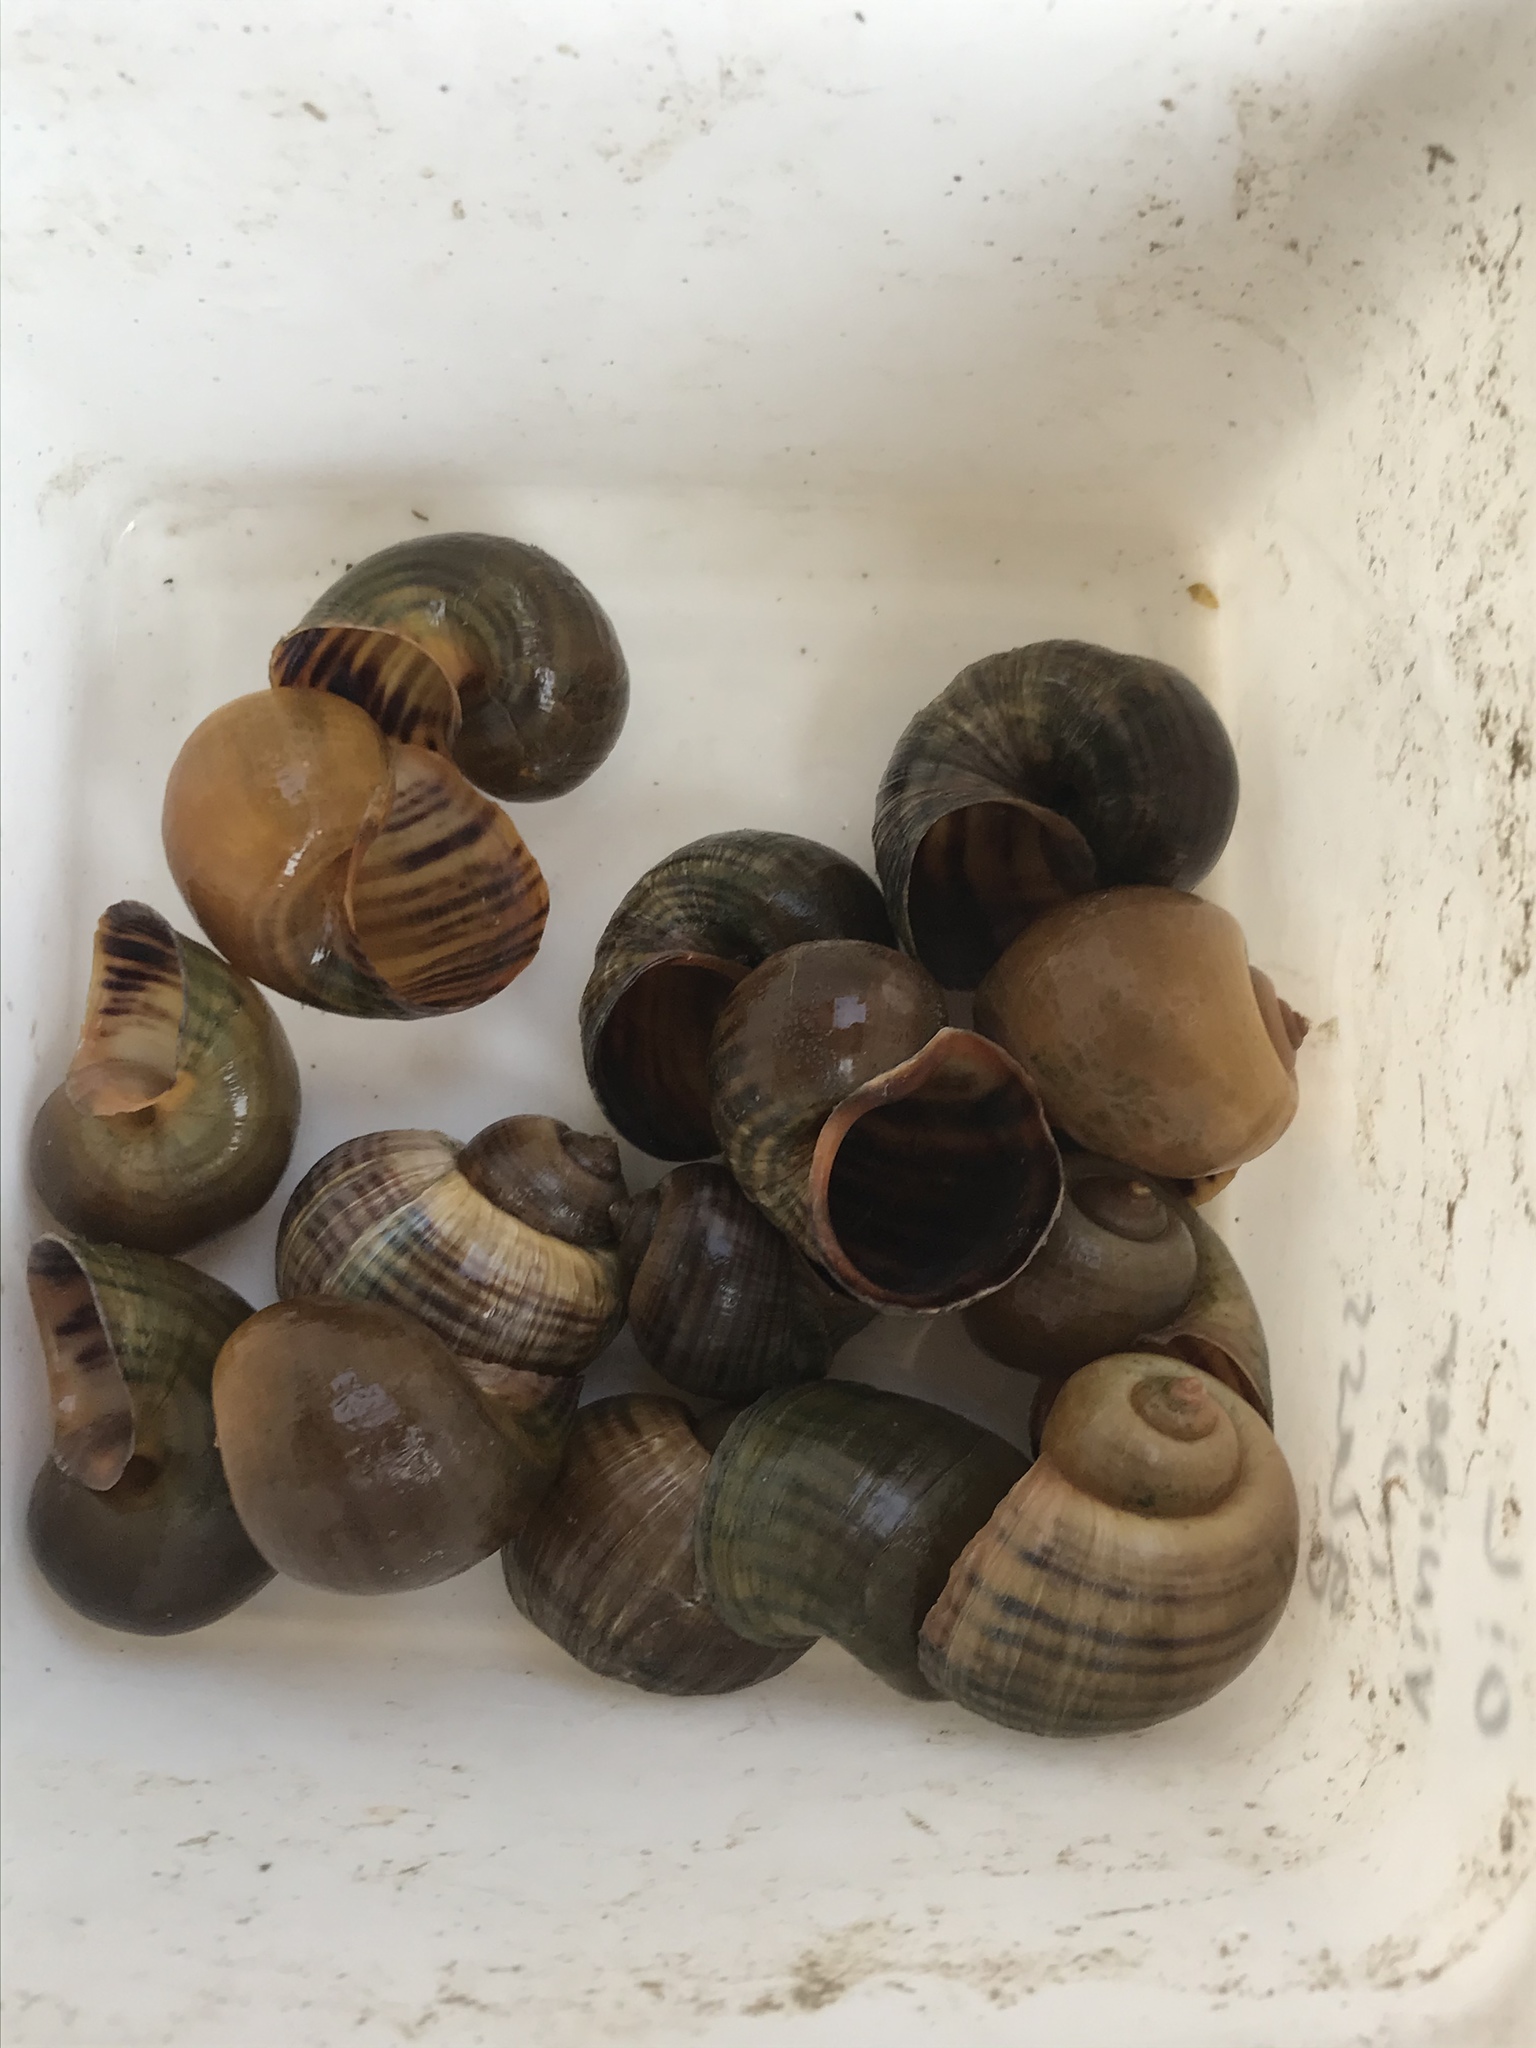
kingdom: Animalia
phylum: Mollusca
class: Gastropoda
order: Architaenioglossa
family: Ampullariidae
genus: Pomacea
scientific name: Pomacea canaliculata
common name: Channeled applesnail
